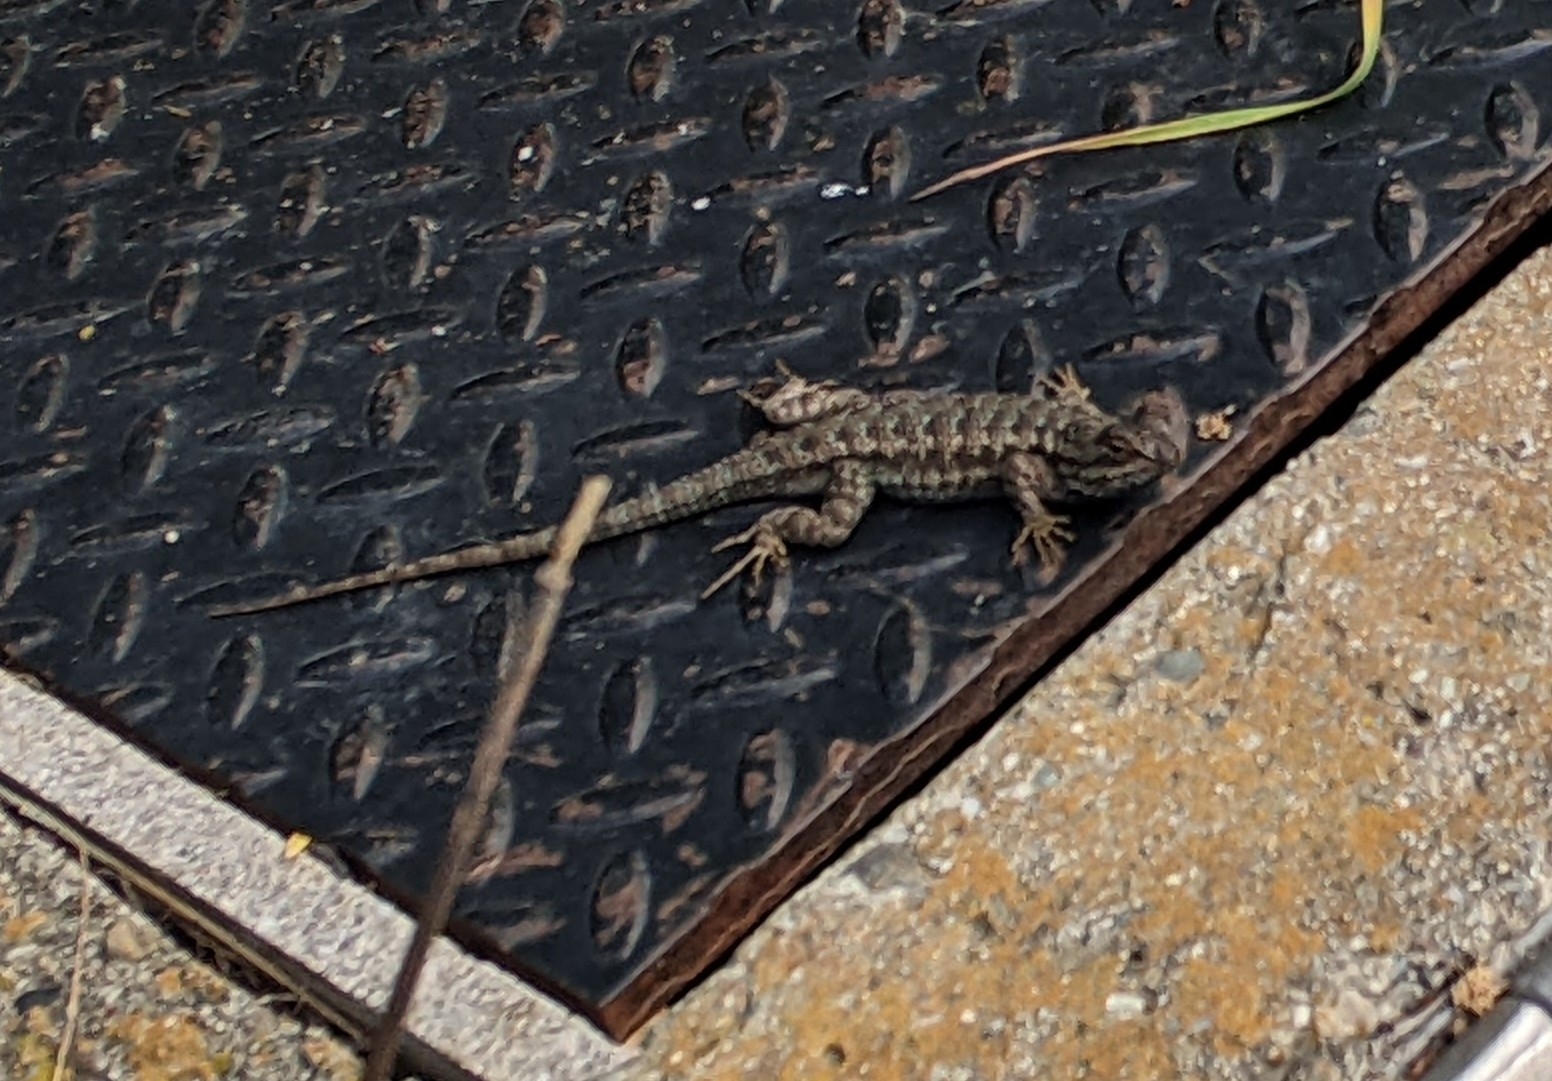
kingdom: Animalia
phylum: Chordata
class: Squamata
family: Phrynosomatidae
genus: Sceloporus
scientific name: Sceloporus occidentalis
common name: Western fence lizard
